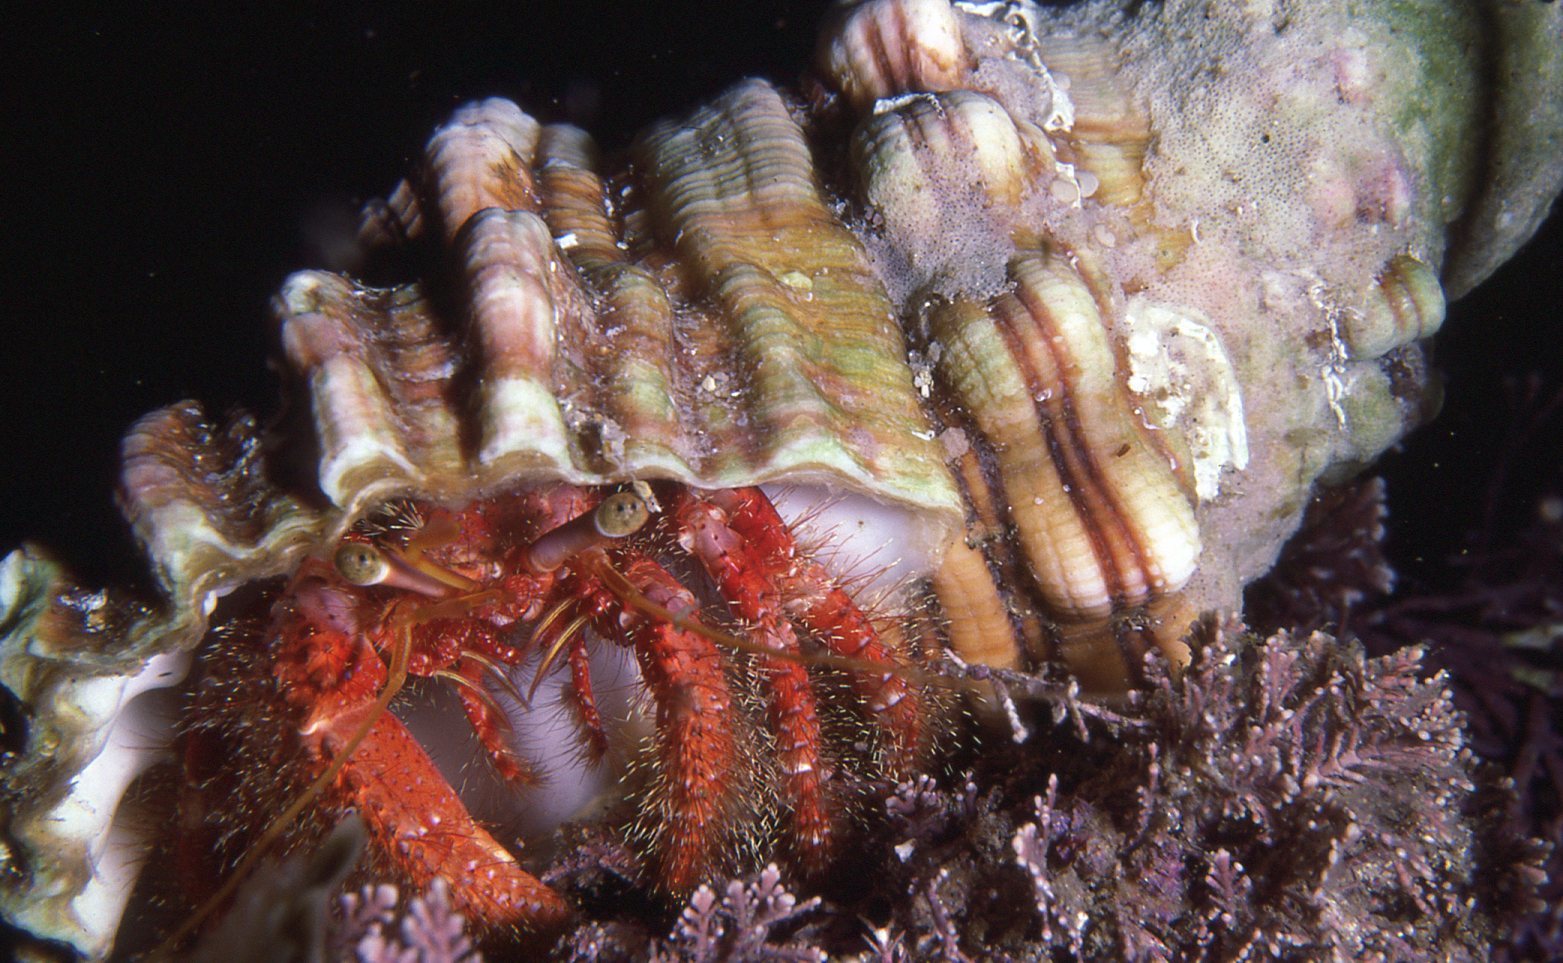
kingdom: Animalia
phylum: Arthropoda
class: Malacostraca
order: Decapoda
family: Diogenidae
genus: Dardanus
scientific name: Dardanus crassimanus
